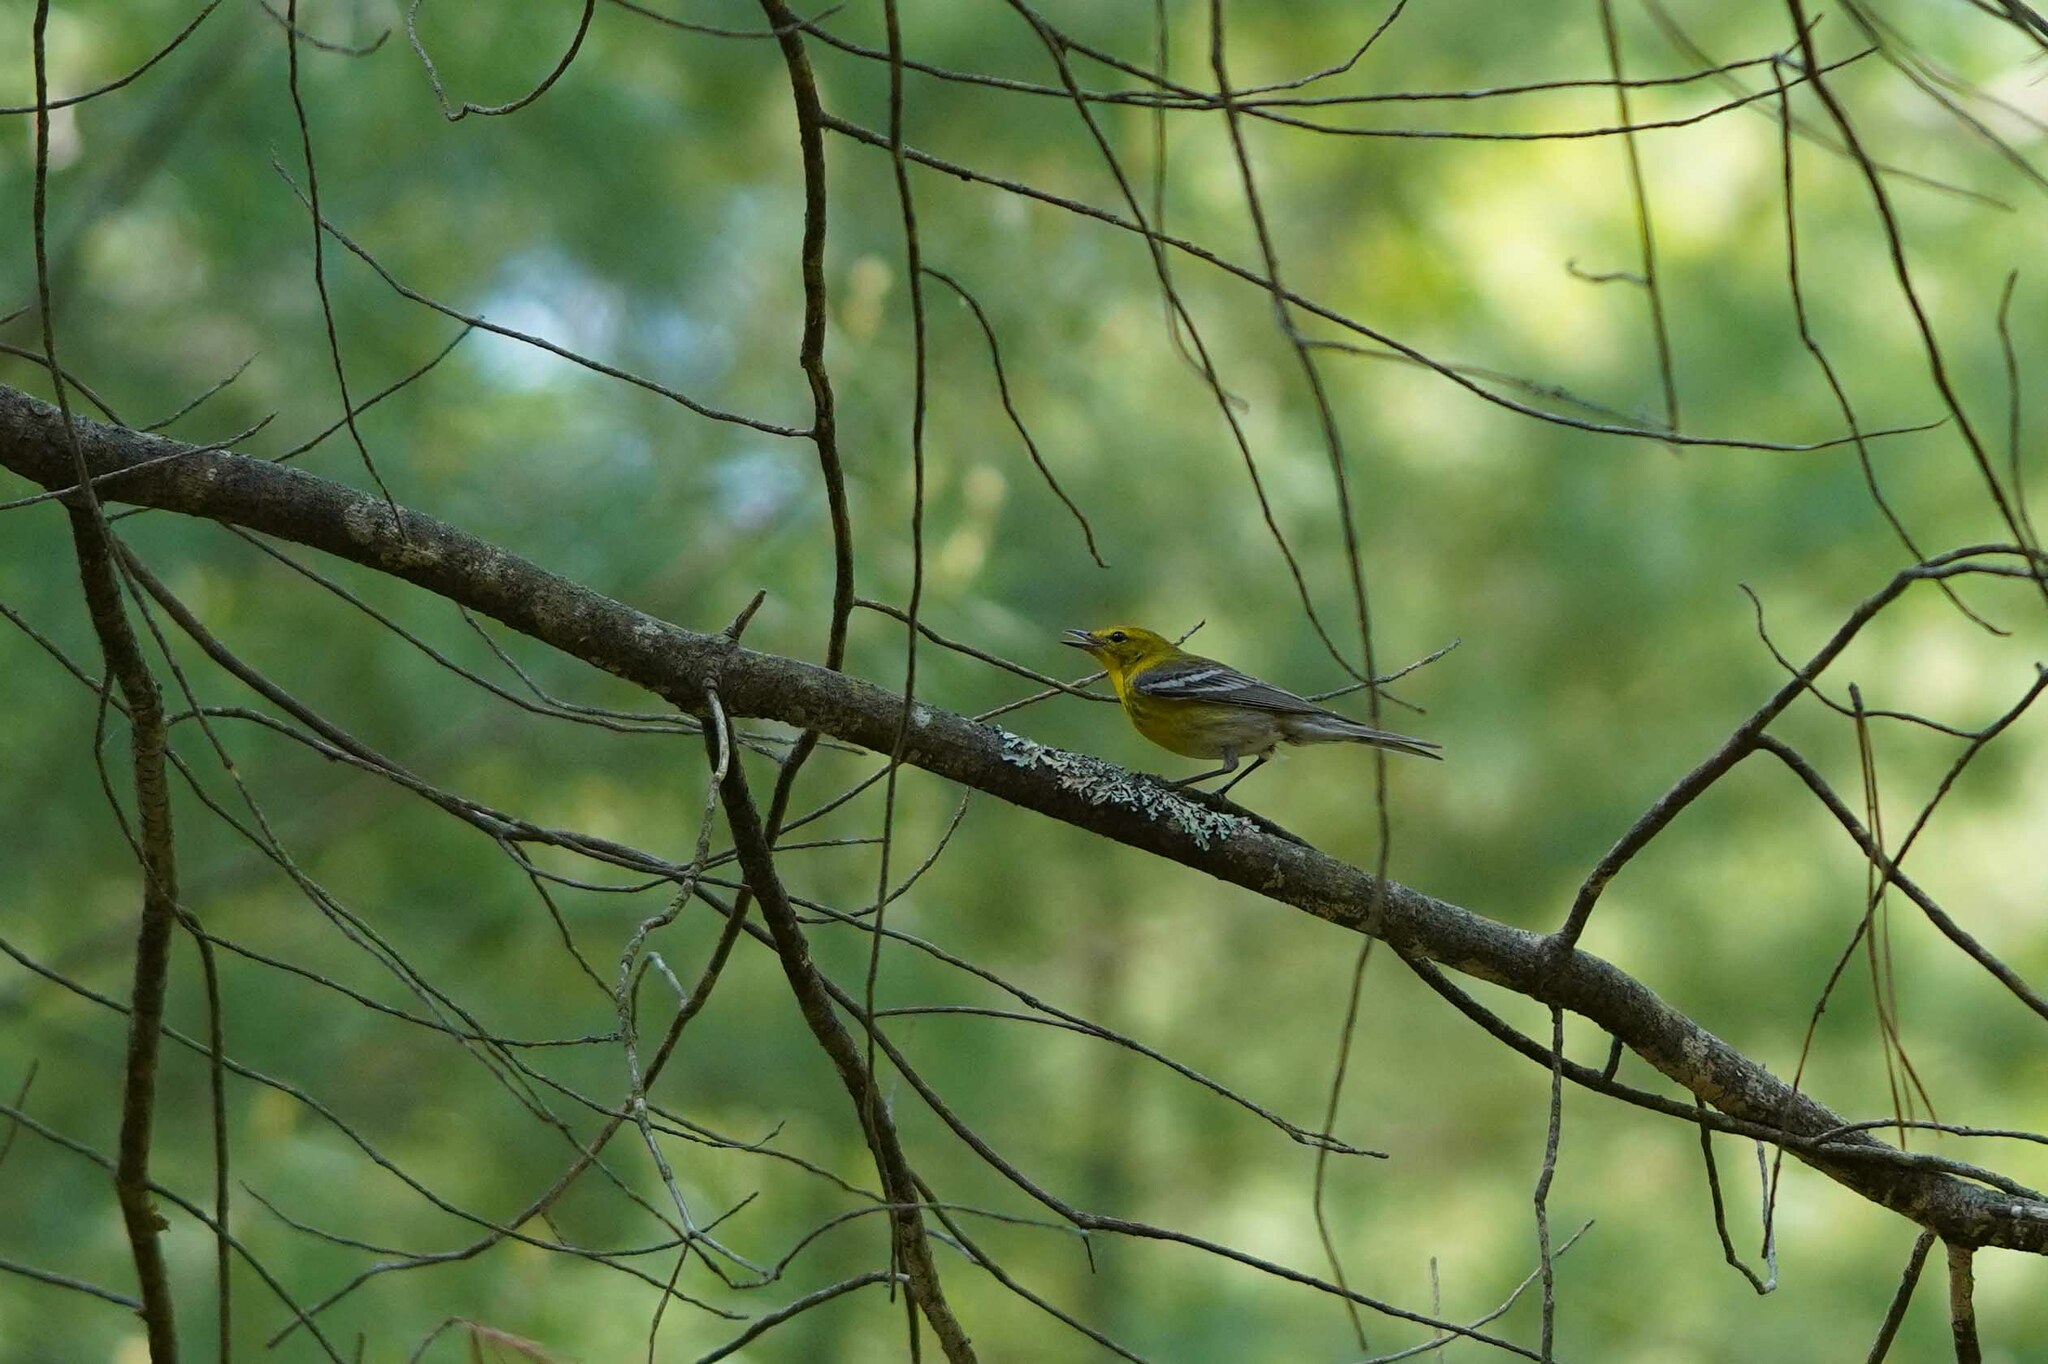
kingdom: Animalia
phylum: Chordata
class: Aves
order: Passeriformes
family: Parulidae
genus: Setophaga
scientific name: Setophaga pinus
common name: Pine warbler
